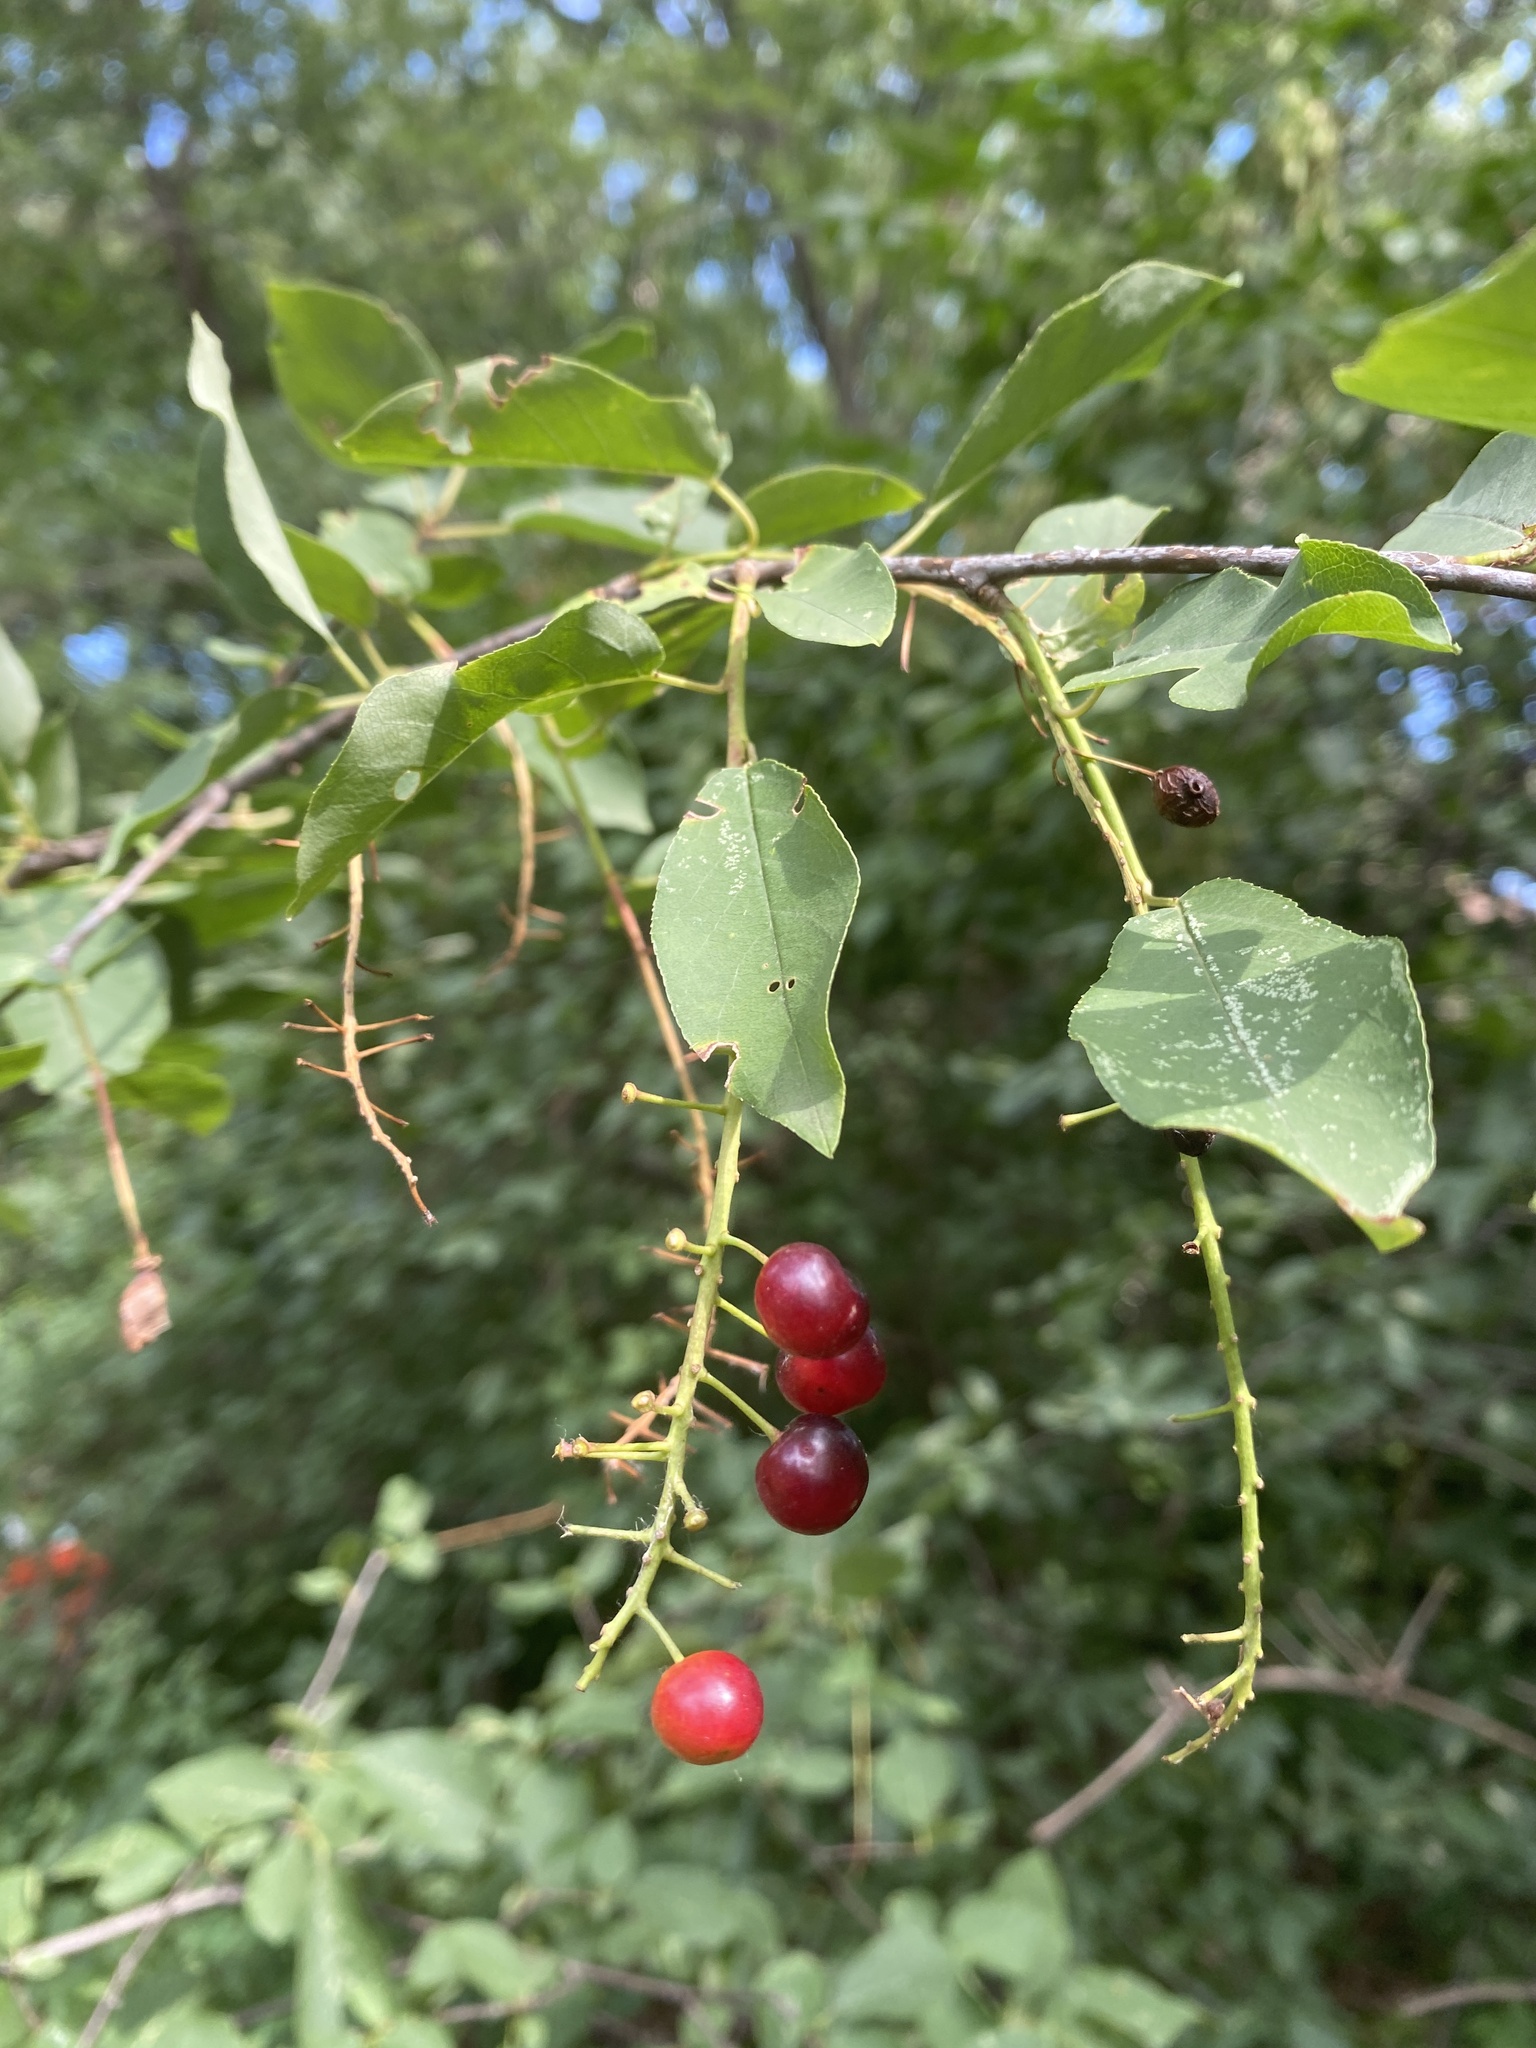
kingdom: Plantae
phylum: Tracheophyta
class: Magnoliopsida
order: Rosales
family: Rosaceae
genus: Prunus
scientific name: Prunus virginiana
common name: Chokecherry
